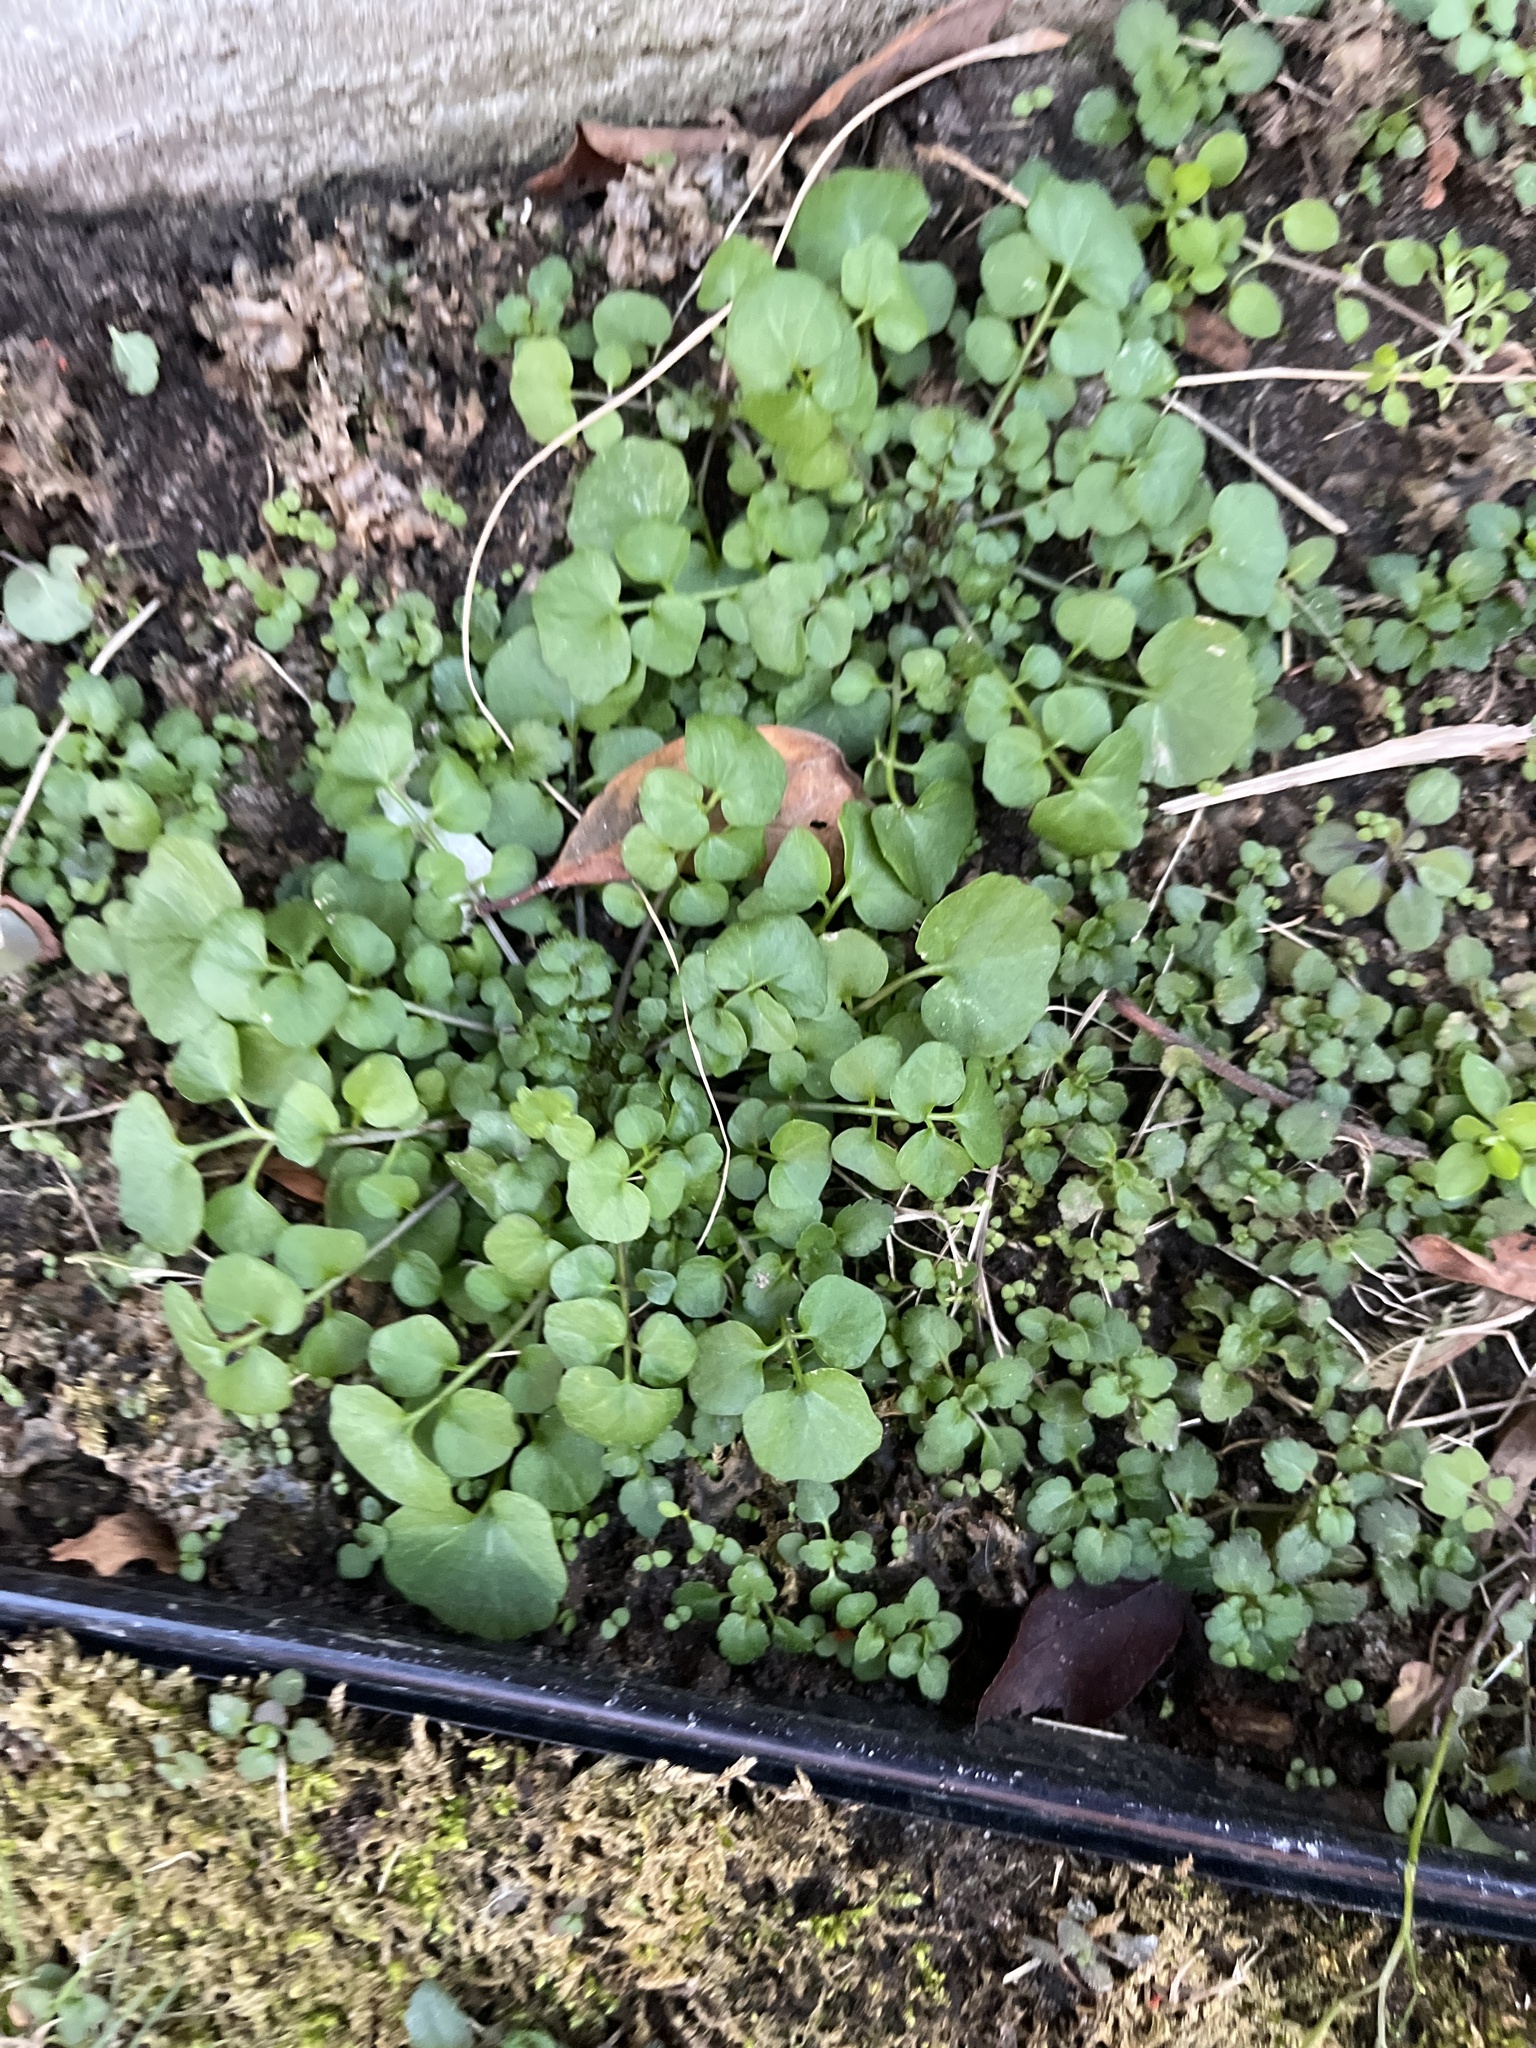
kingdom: Plantae
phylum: Tracheophyta
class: Magnoliopsida
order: Brassicales
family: Brassicaceae
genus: Cardamine
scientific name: Cardamine hirsuta
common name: Hairy bittercress
